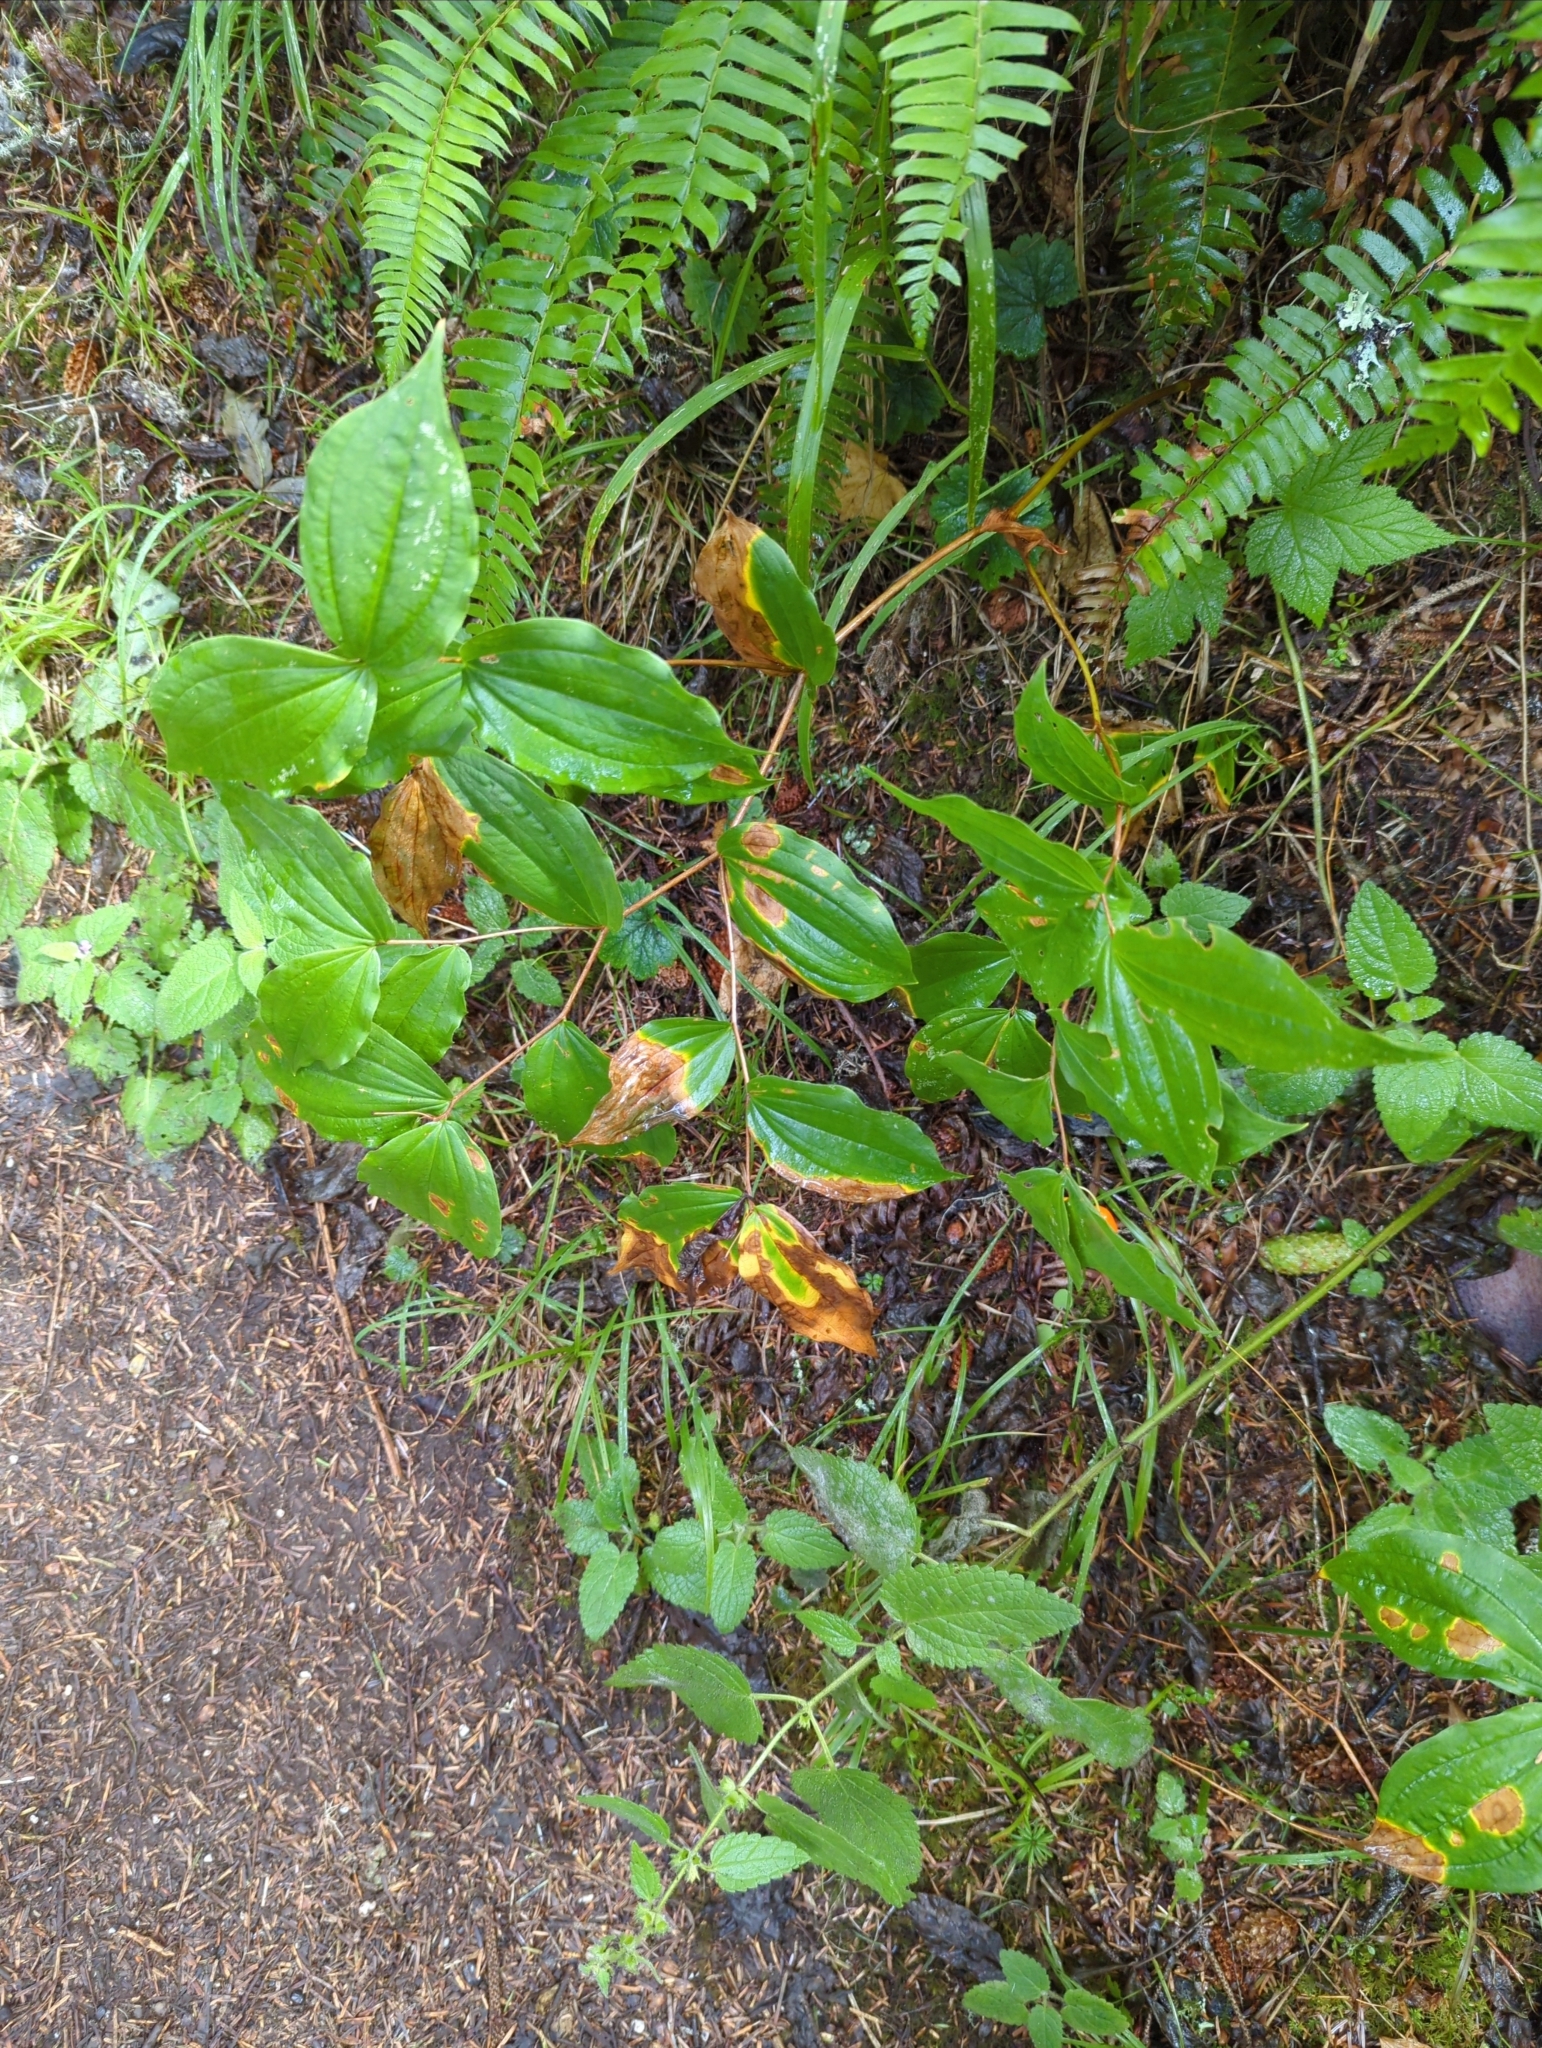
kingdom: Plantae
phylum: Tracheophyta
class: Liliopsida
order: Liliales
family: Liliaceae
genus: Prosartes
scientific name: Prosartes smithii
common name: Fairy-lantern
